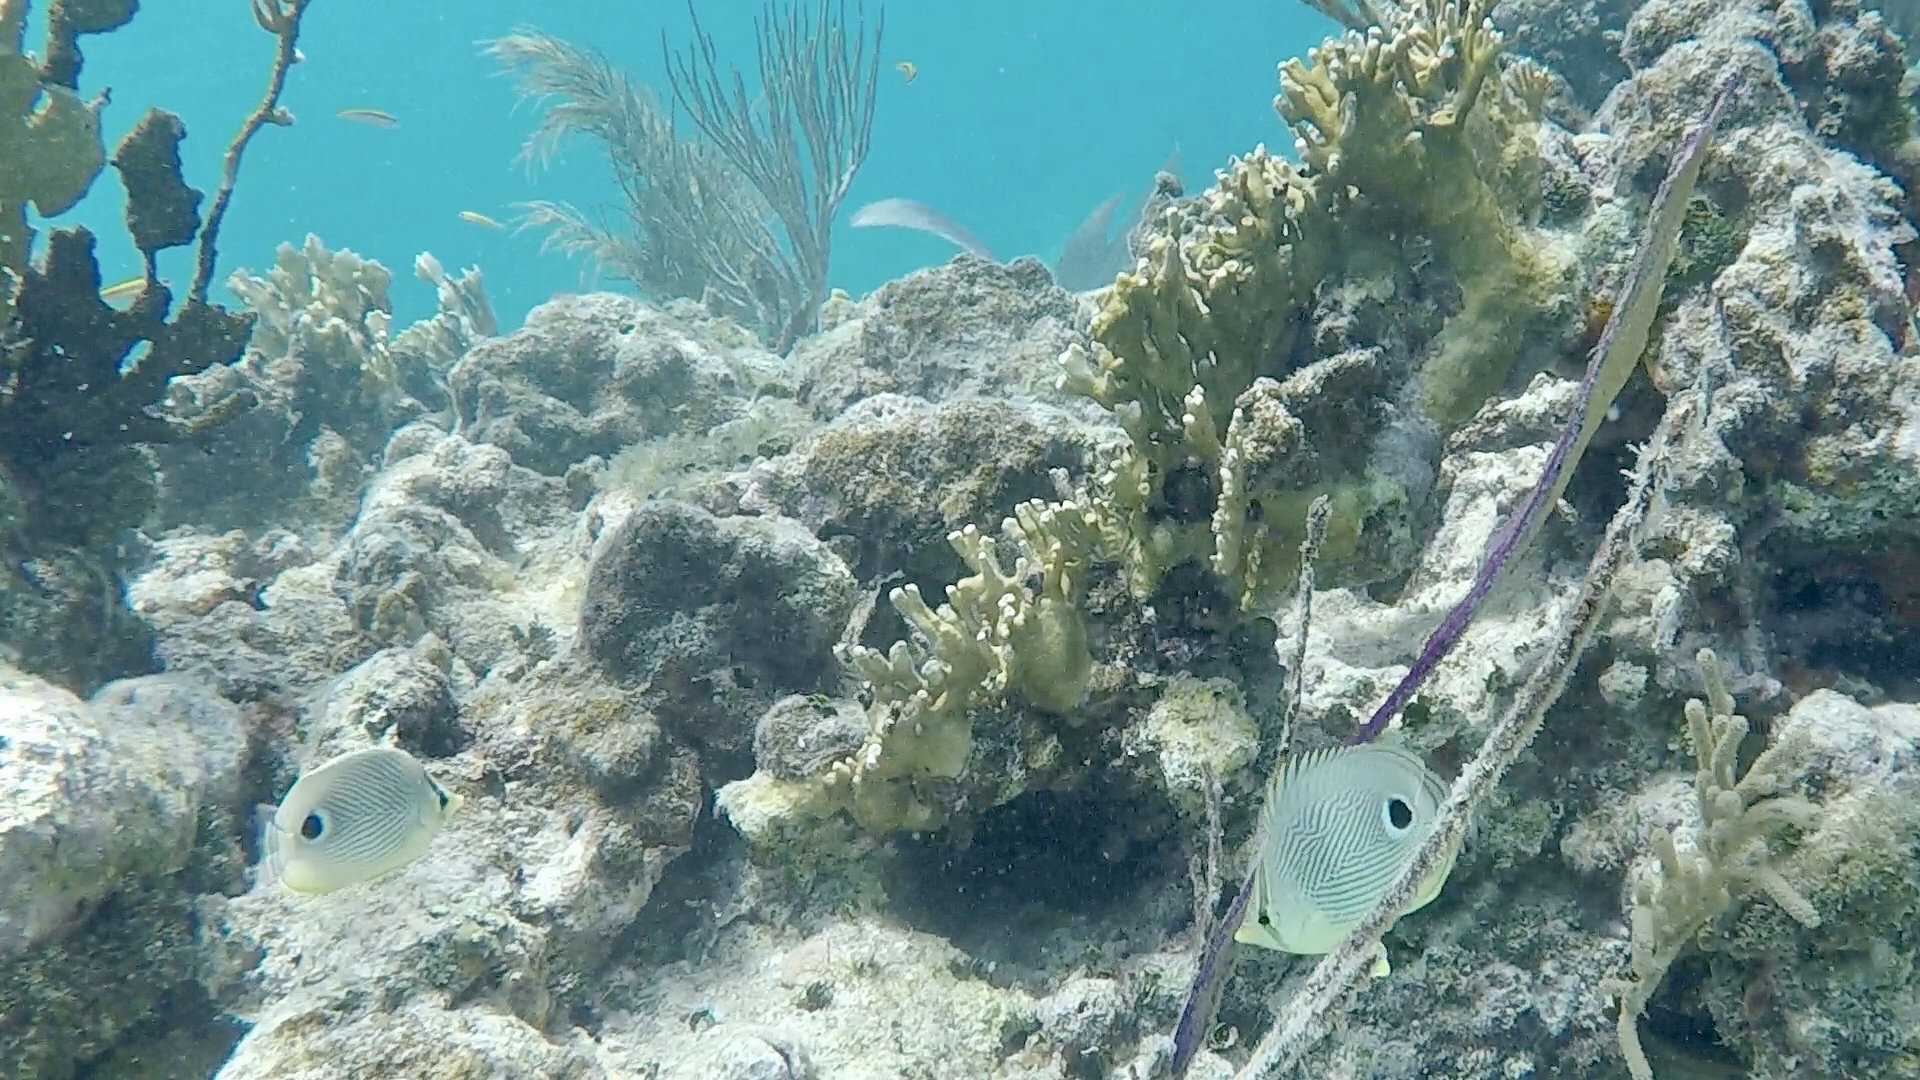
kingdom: Animalia
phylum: Chordata
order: Perciformes
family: Chaetodontidae
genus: Chaetodon
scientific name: Chaetodon capistratus
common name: Kete
